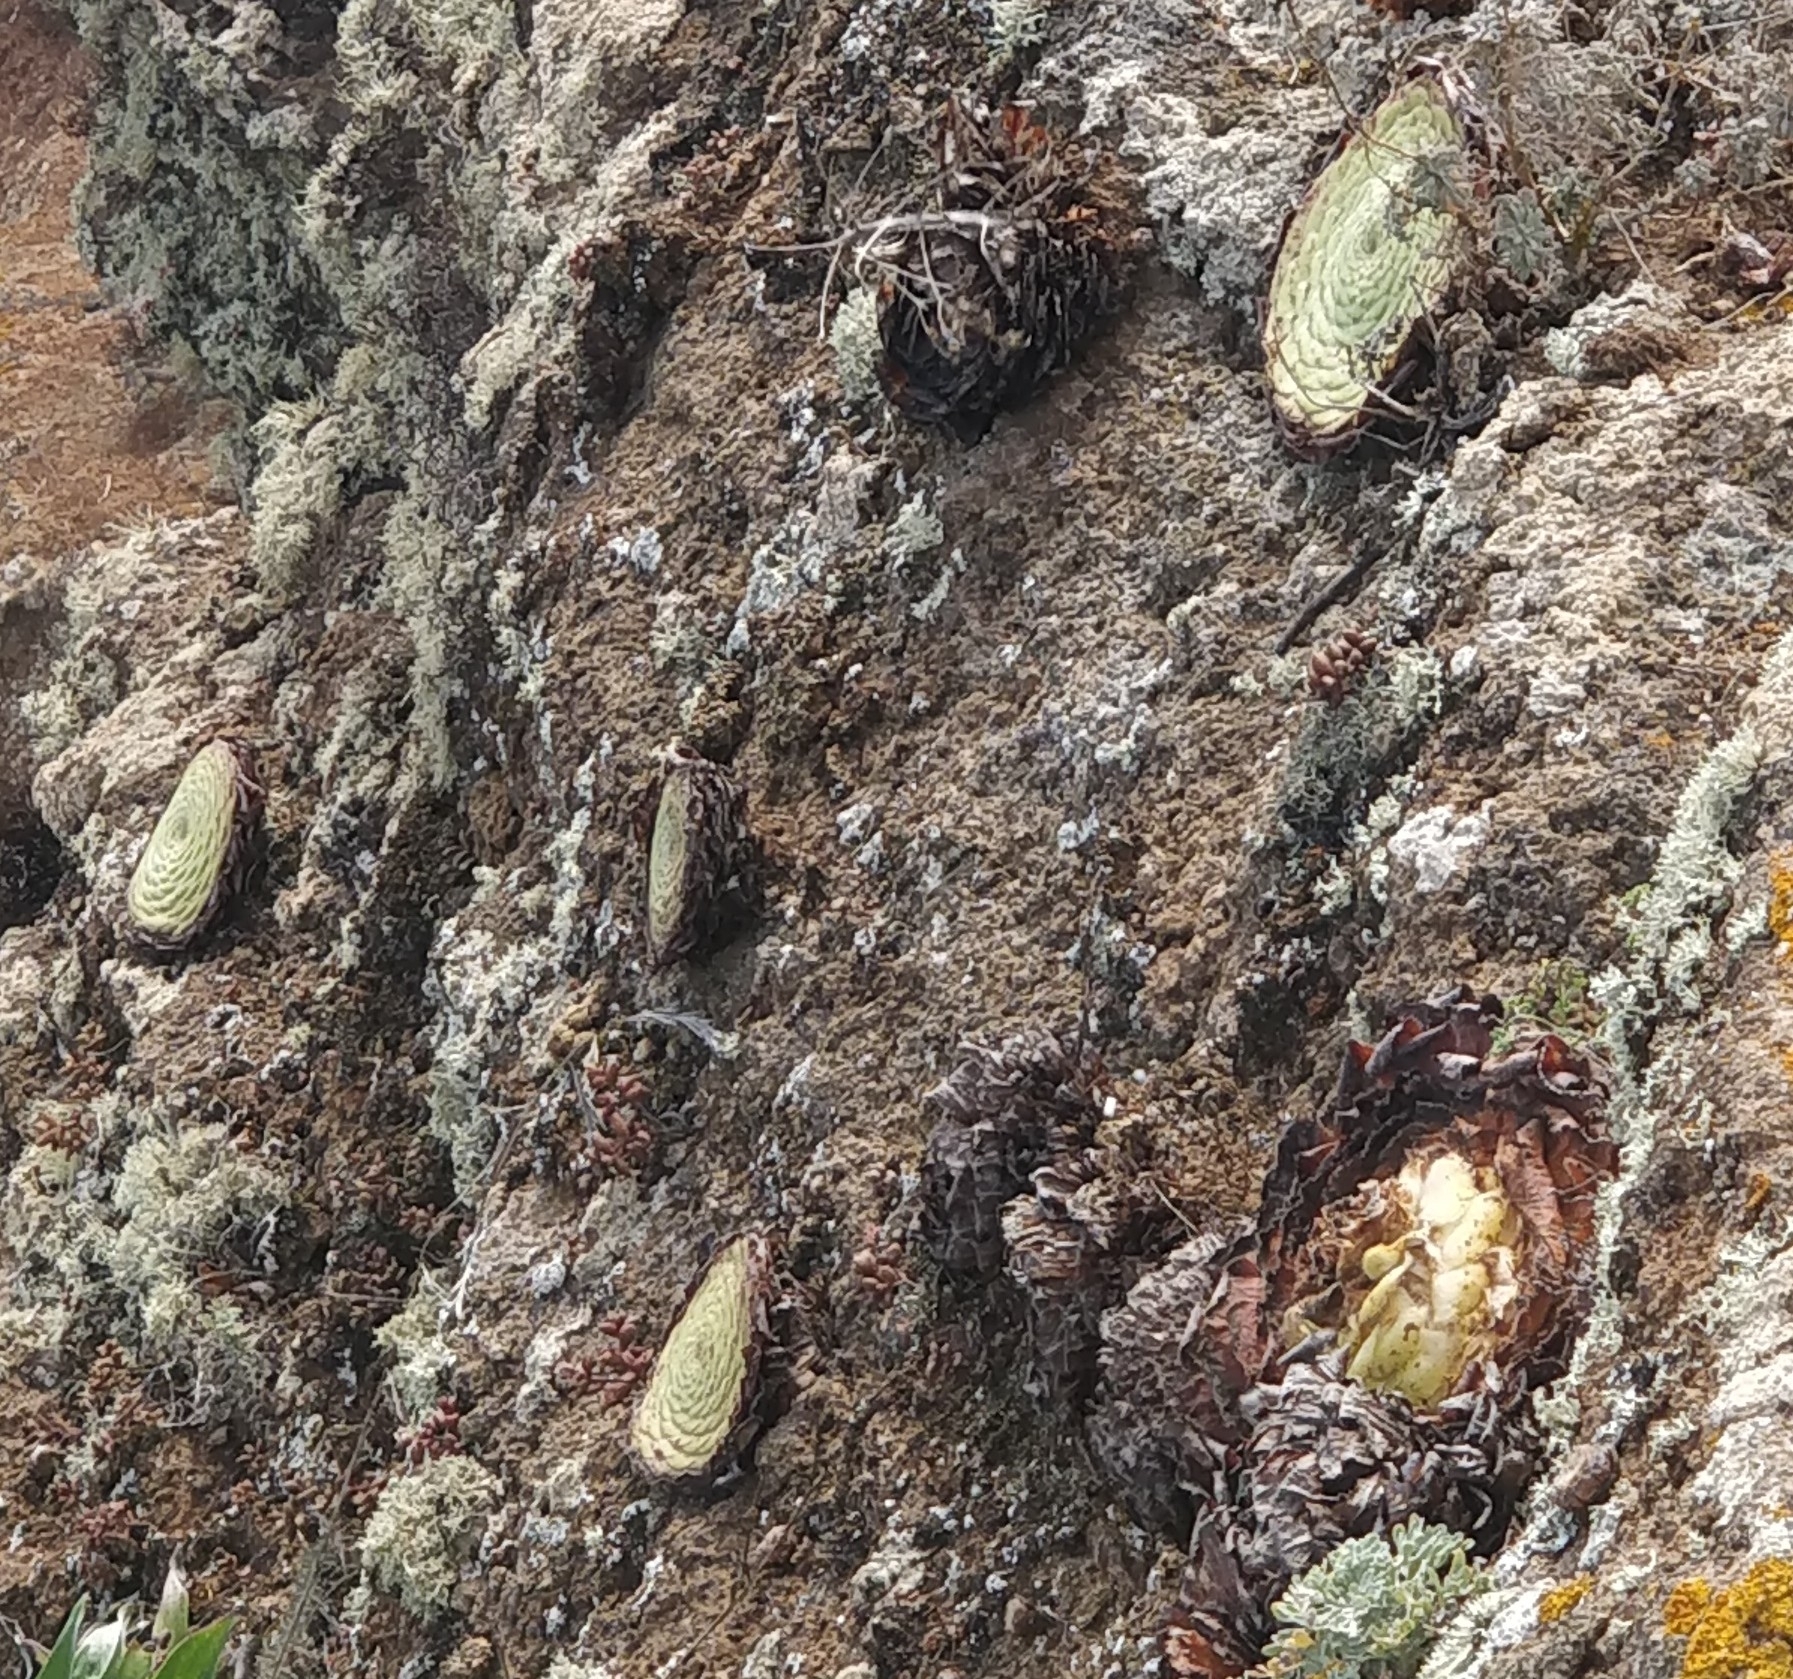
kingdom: Plantae
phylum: Tracheophyta
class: Magnoliopsida
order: Saxifragales
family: Crassulaceae
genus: Aeonium
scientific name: Aeonium tabulaeforme
